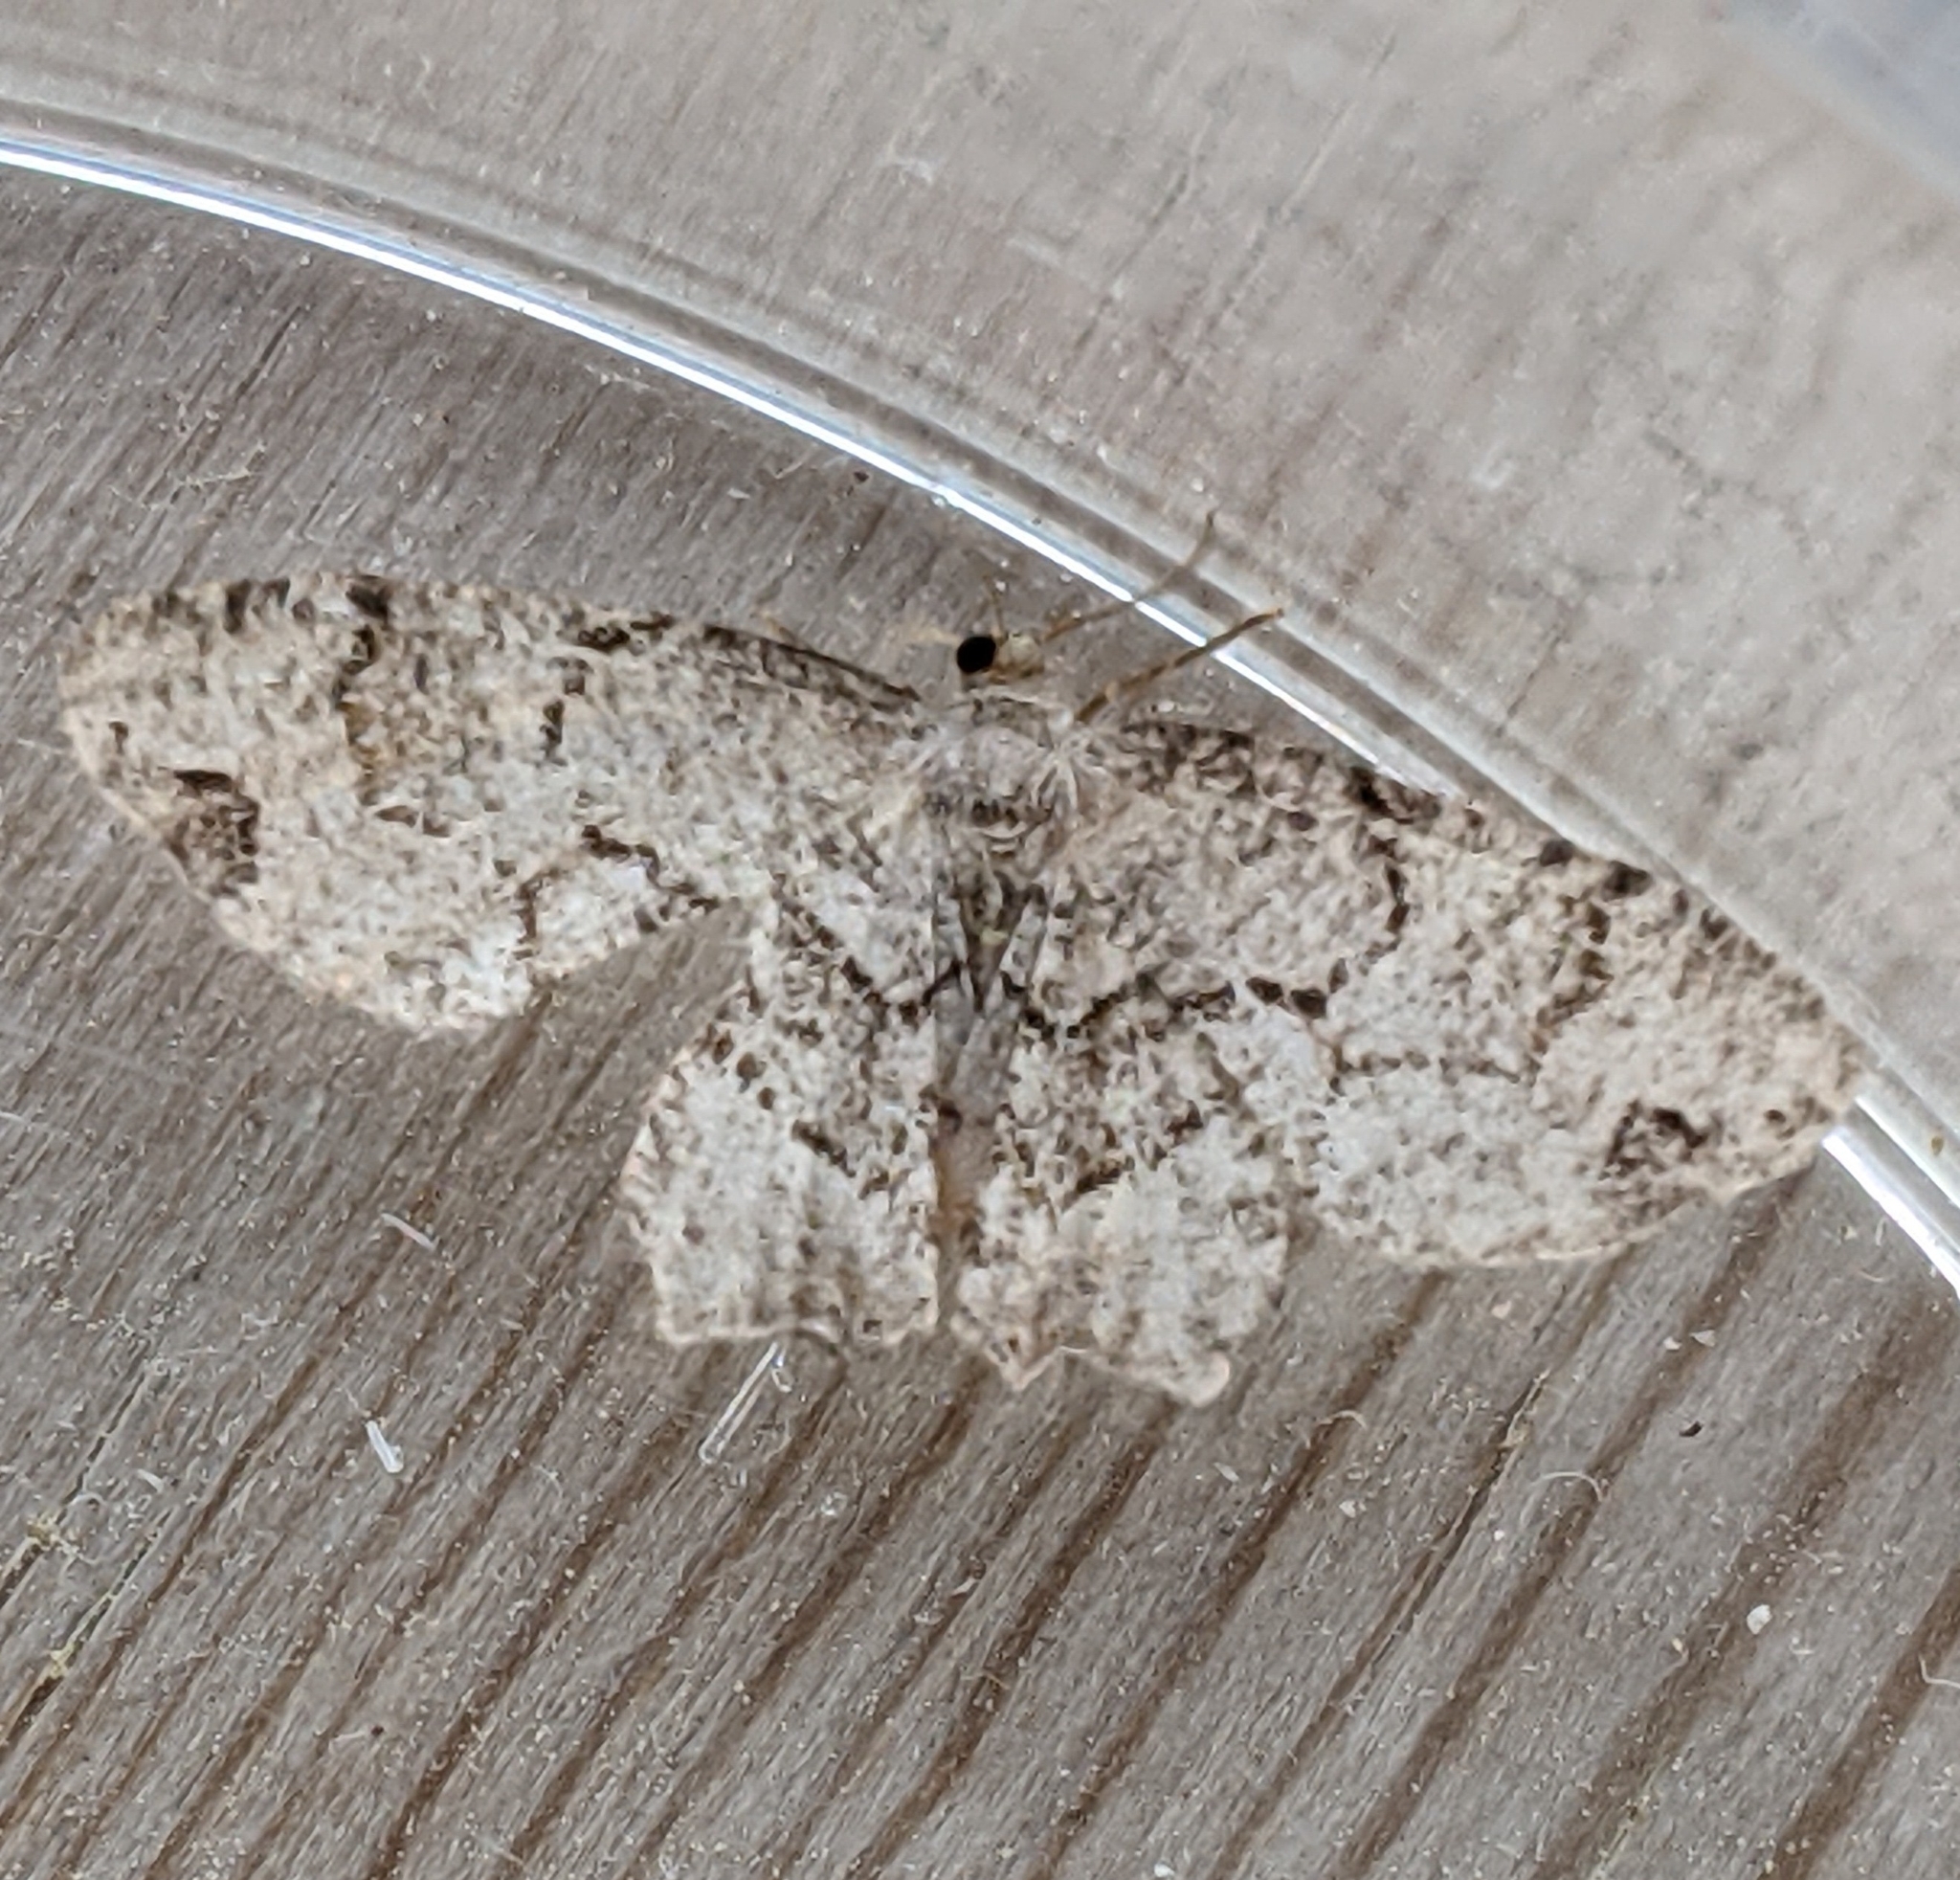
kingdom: Animalia
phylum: Arthropoda
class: Insecta
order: Lepidoptera
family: Uraniidae
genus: Epiplema
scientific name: Epiplema Callizzia amorata
